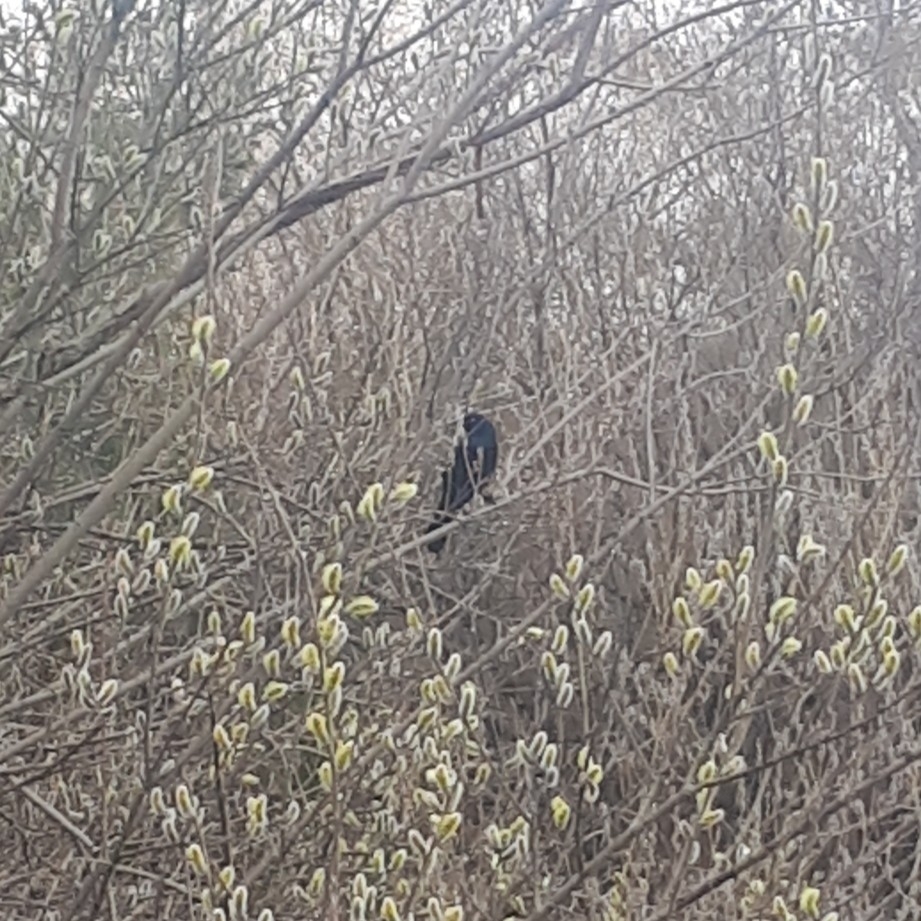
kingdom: Animalia
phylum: Chordata
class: Aves
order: Passeriformes
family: Icteridae
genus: Quiscalus
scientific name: Quiscalus quiscula
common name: Common grackle
